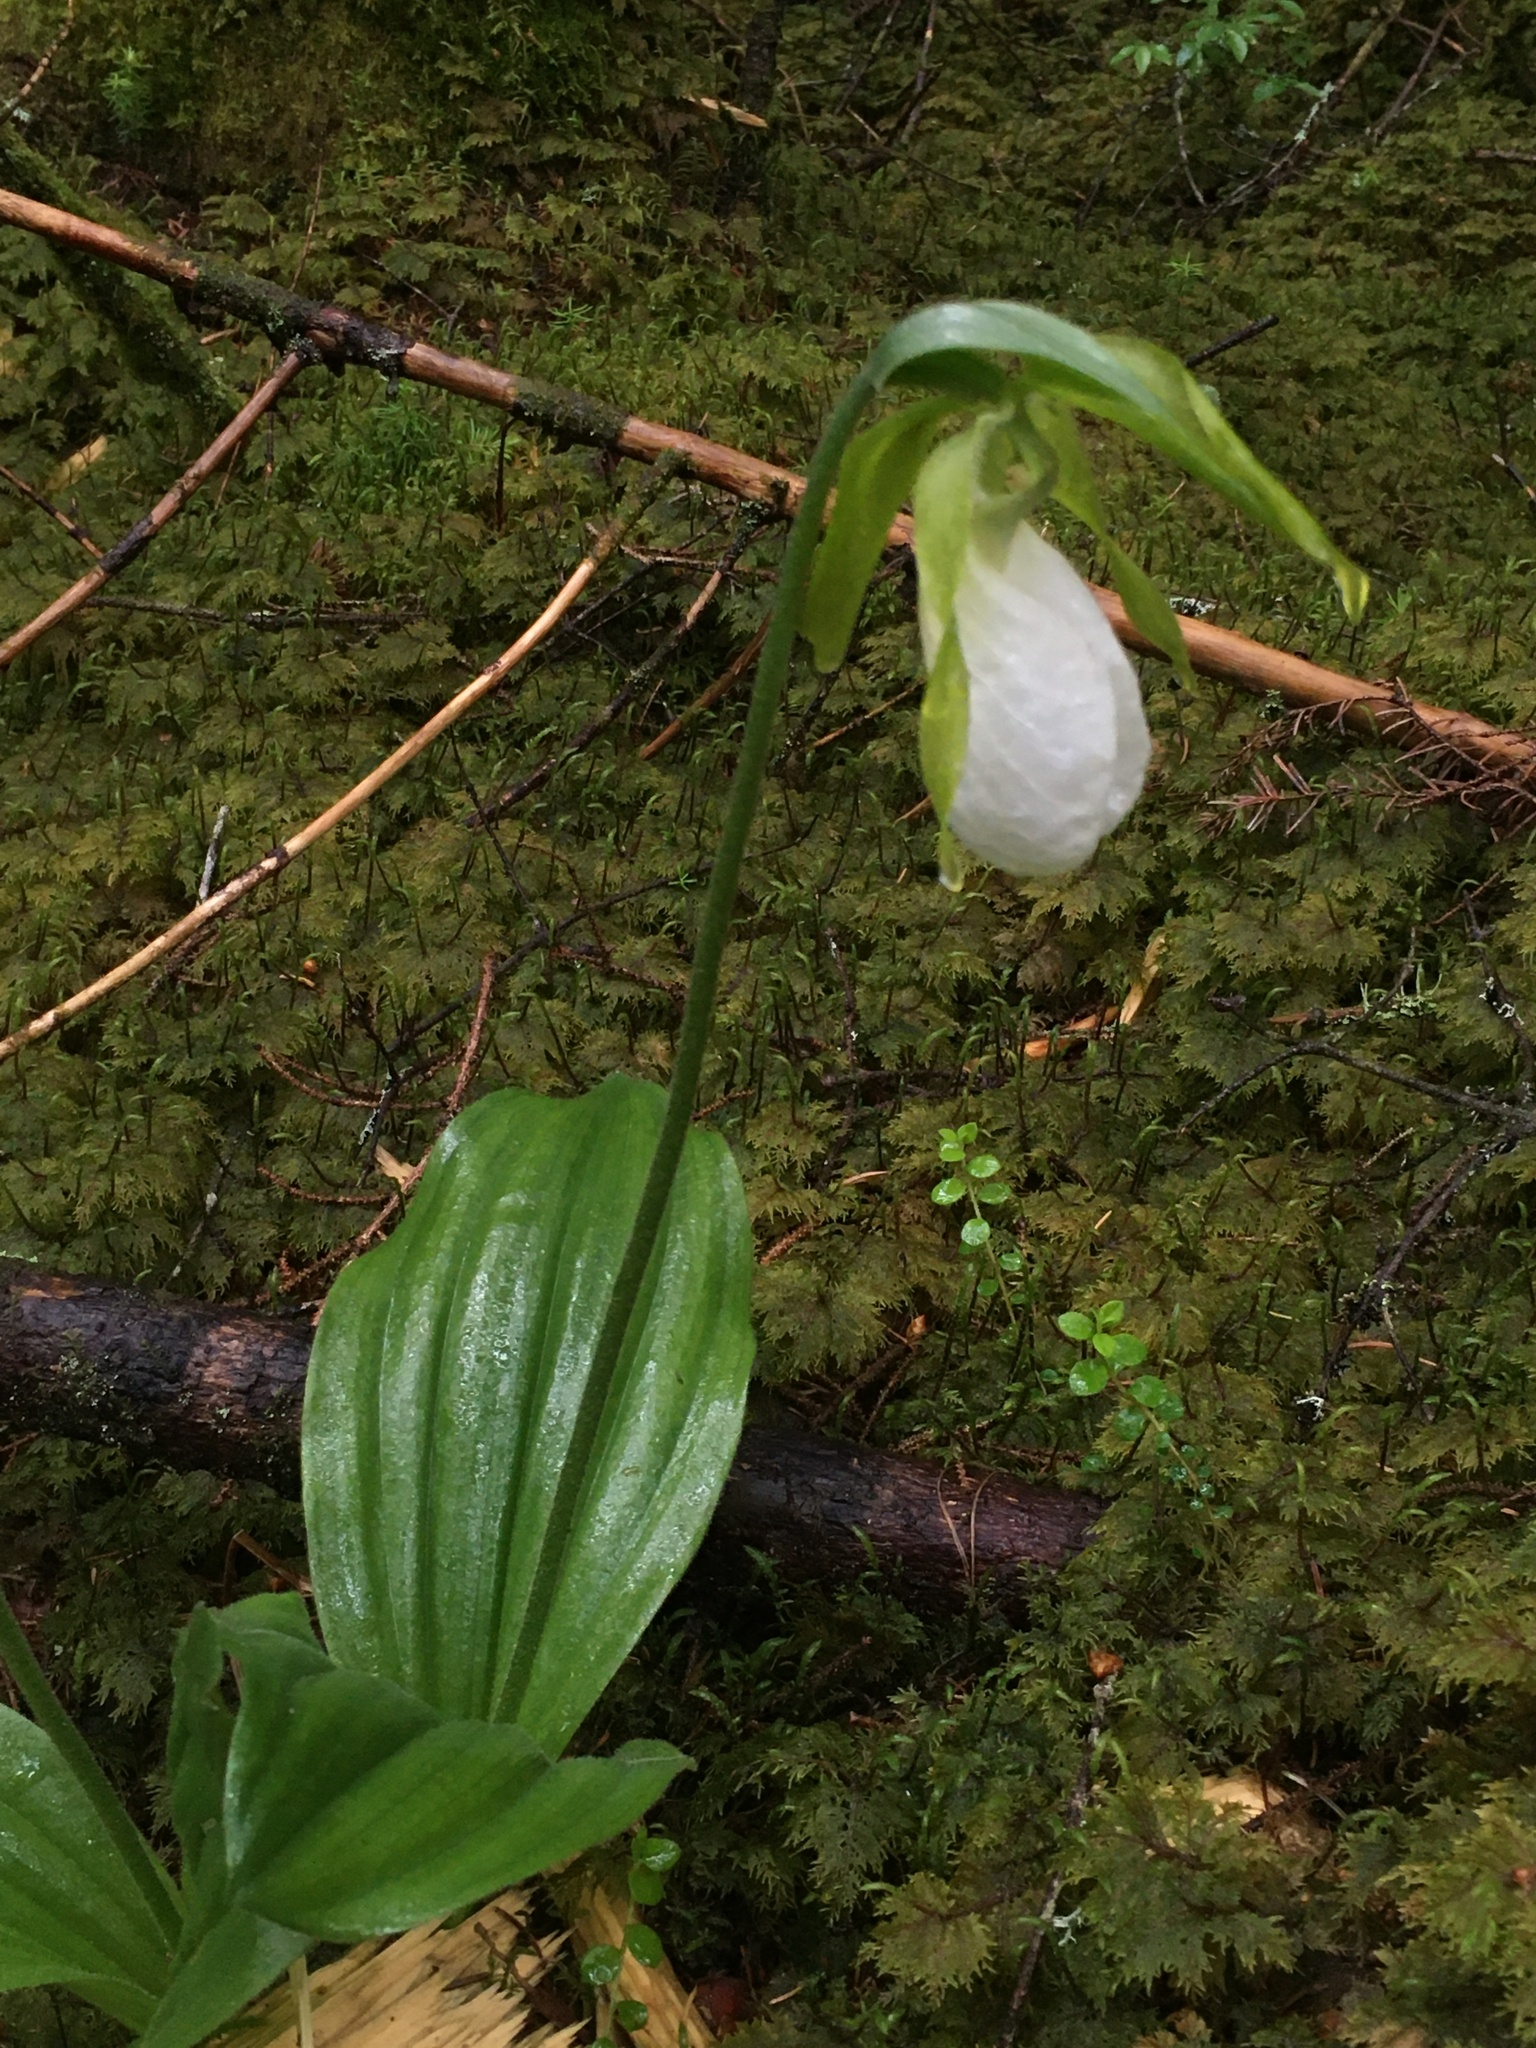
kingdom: Plantae
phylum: Tracheophyta
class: Liliopsida
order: Asparagales
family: Orchidaceae
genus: Cypripedium
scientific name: Cypripedium acaule
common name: Pink lady's-slipper
